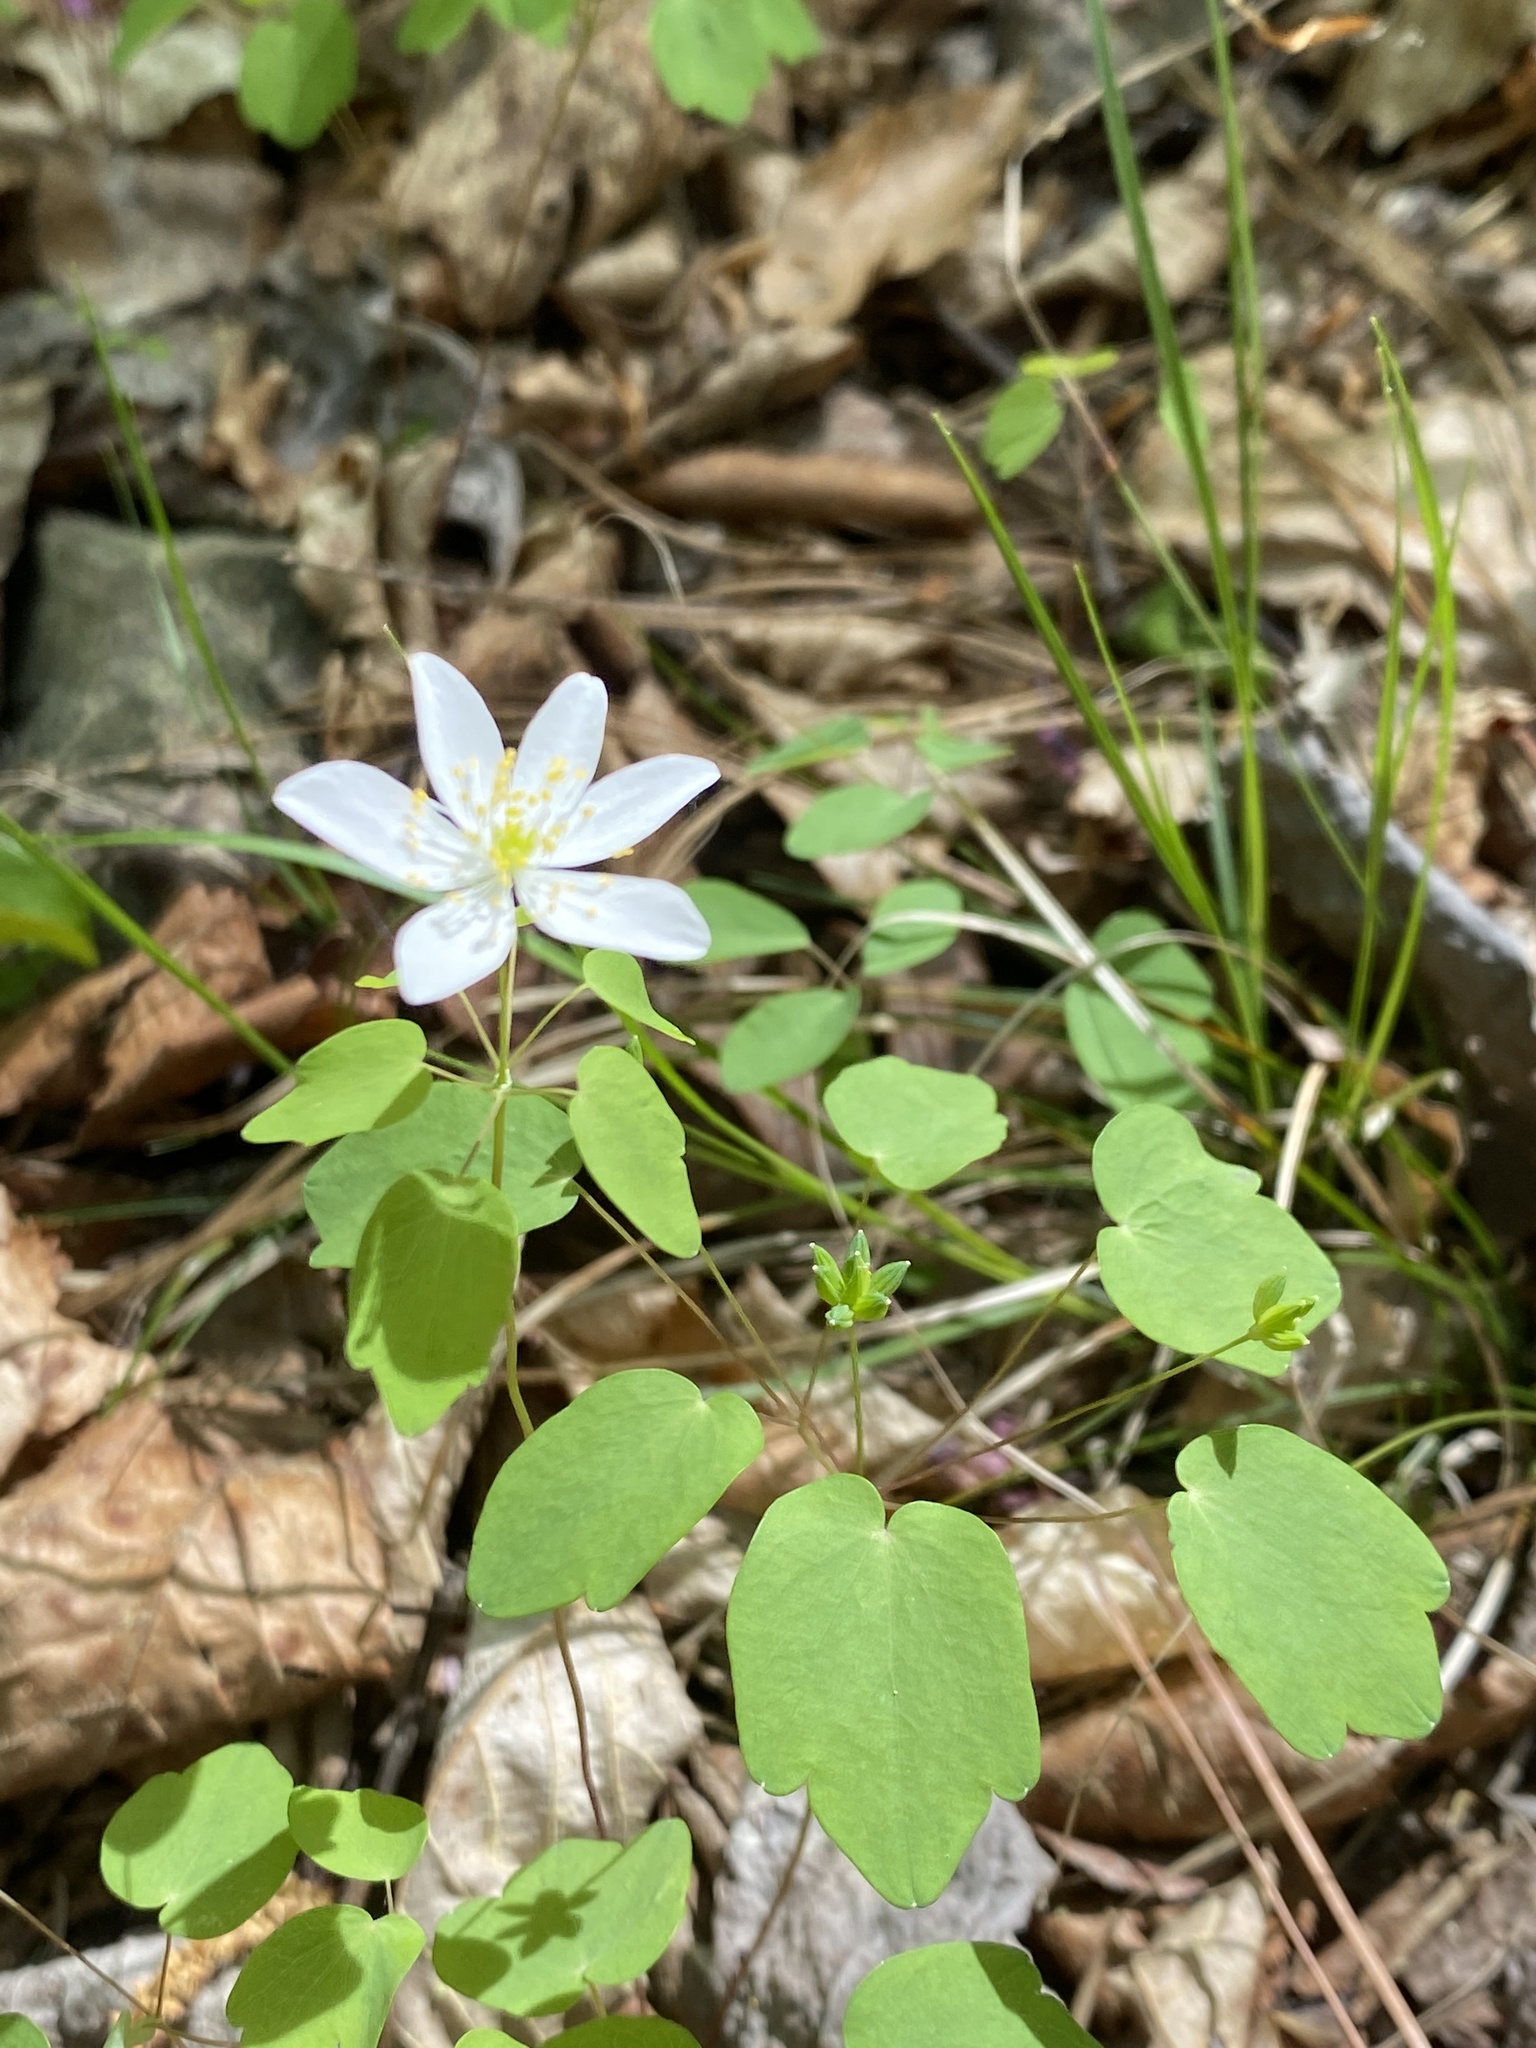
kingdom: Plantae
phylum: Tracheophyta
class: Magnoliopsida
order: Ranunculales
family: Ranunculaceae
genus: Thalictrum
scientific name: Thalictrum thalictroides
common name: Rue-anemone
